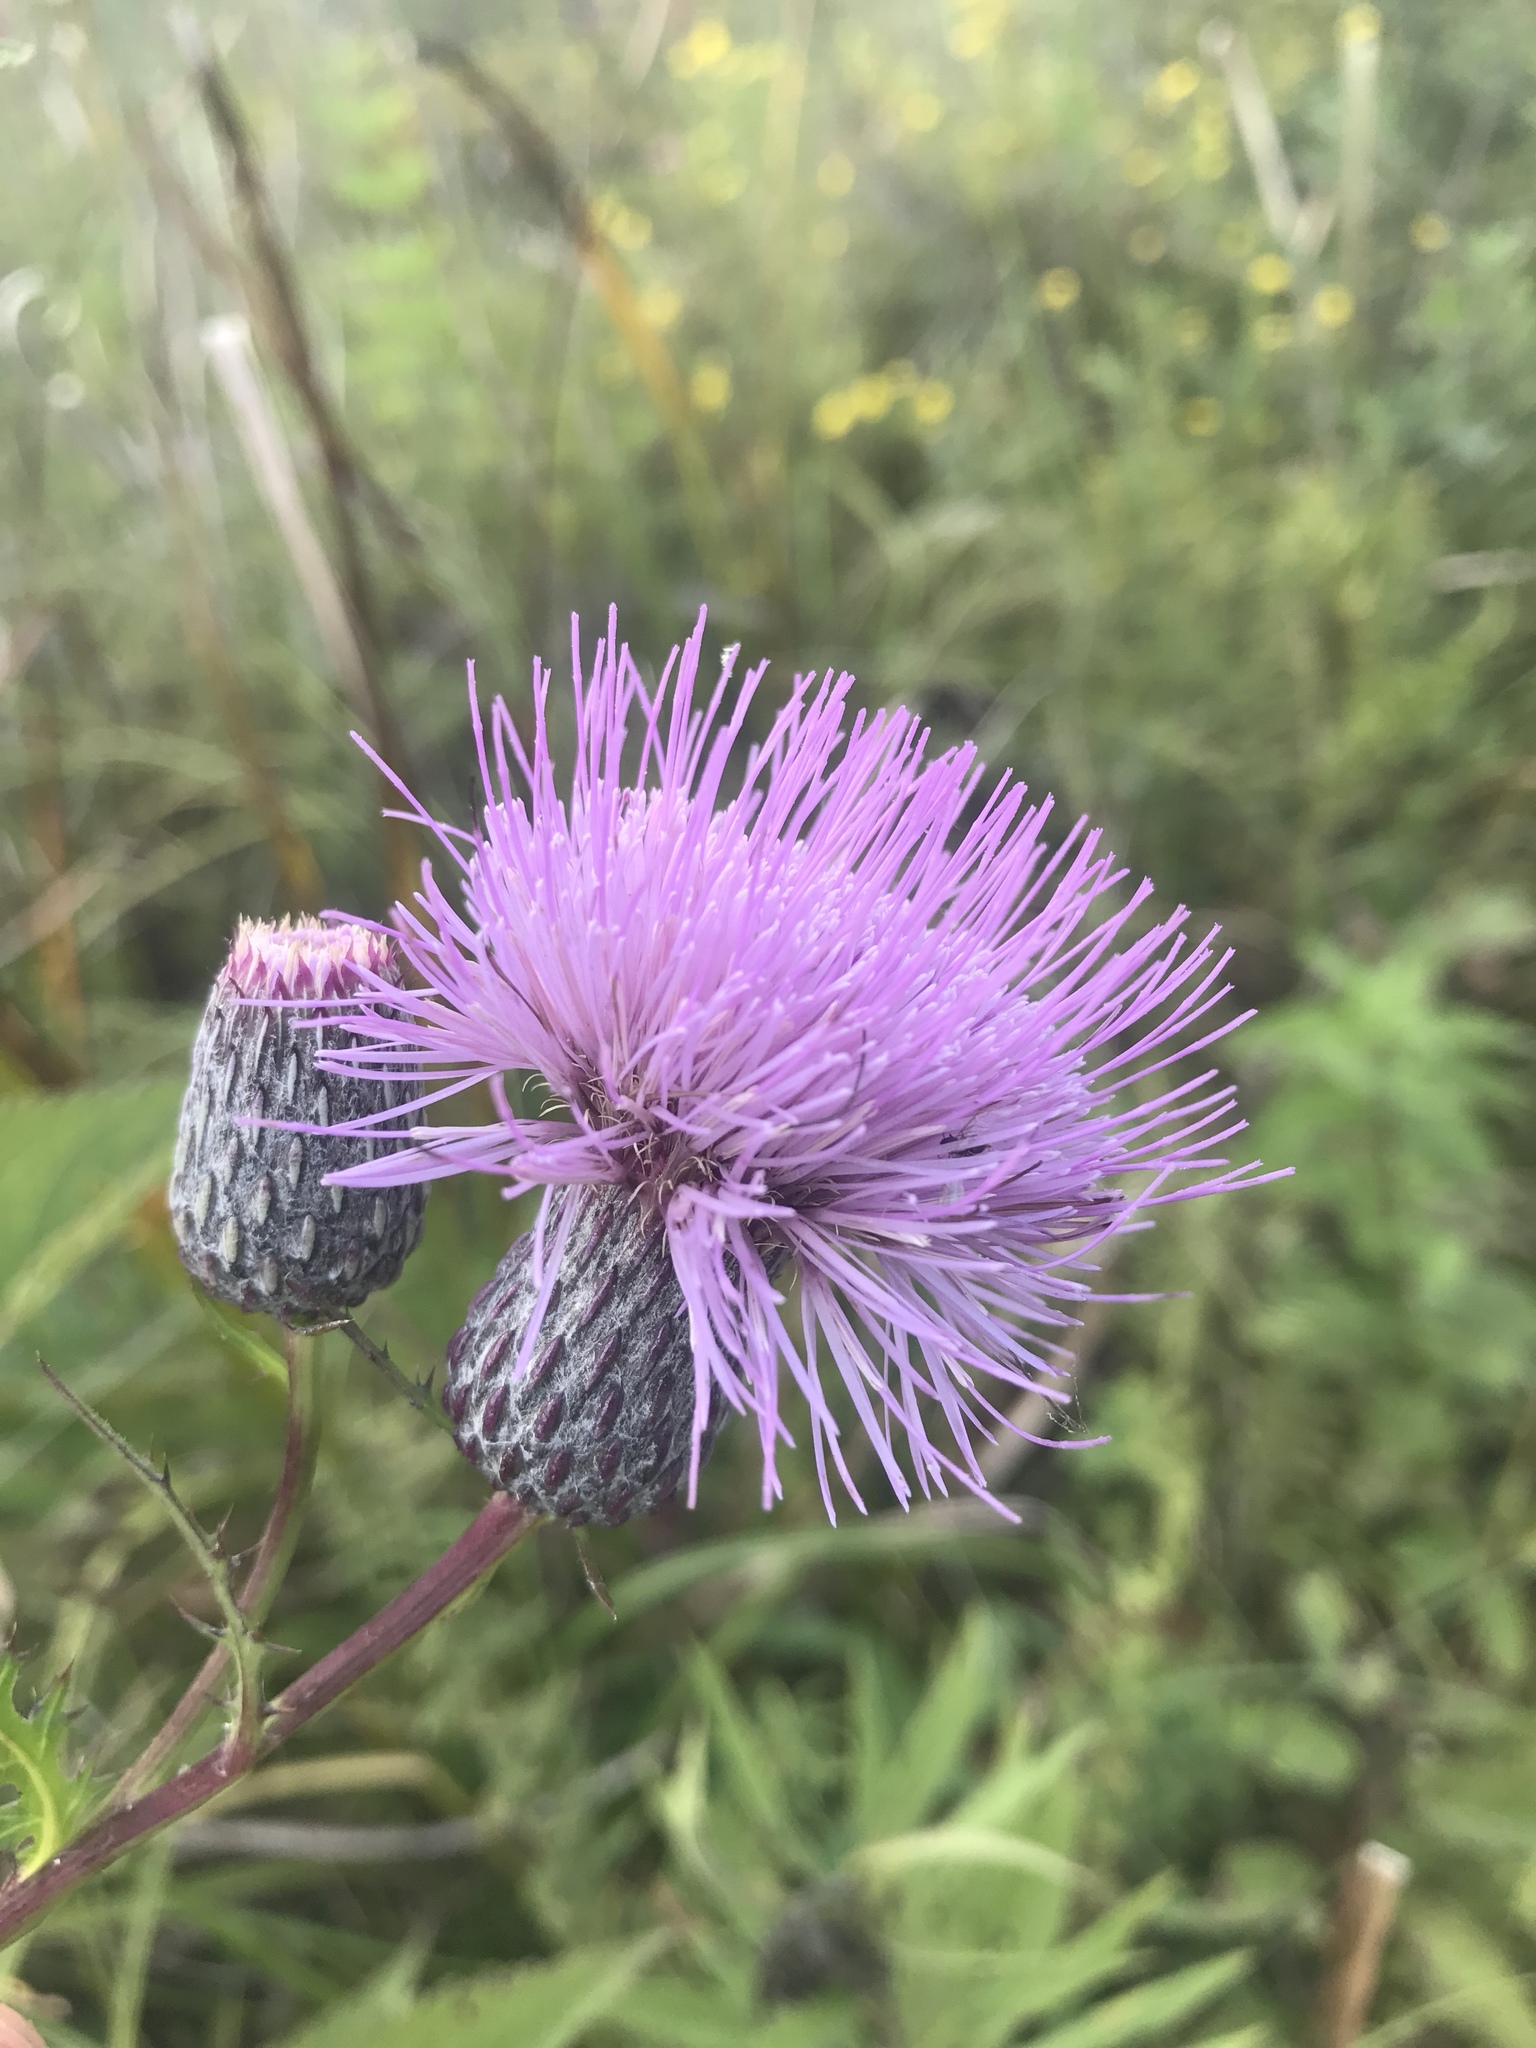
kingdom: Plantae
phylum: Tracheophyta
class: Magnoliopsida
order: Asterales
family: Asteraceae
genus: Cirsium
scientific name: Cirsium muticum
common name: Dunce-nettle
